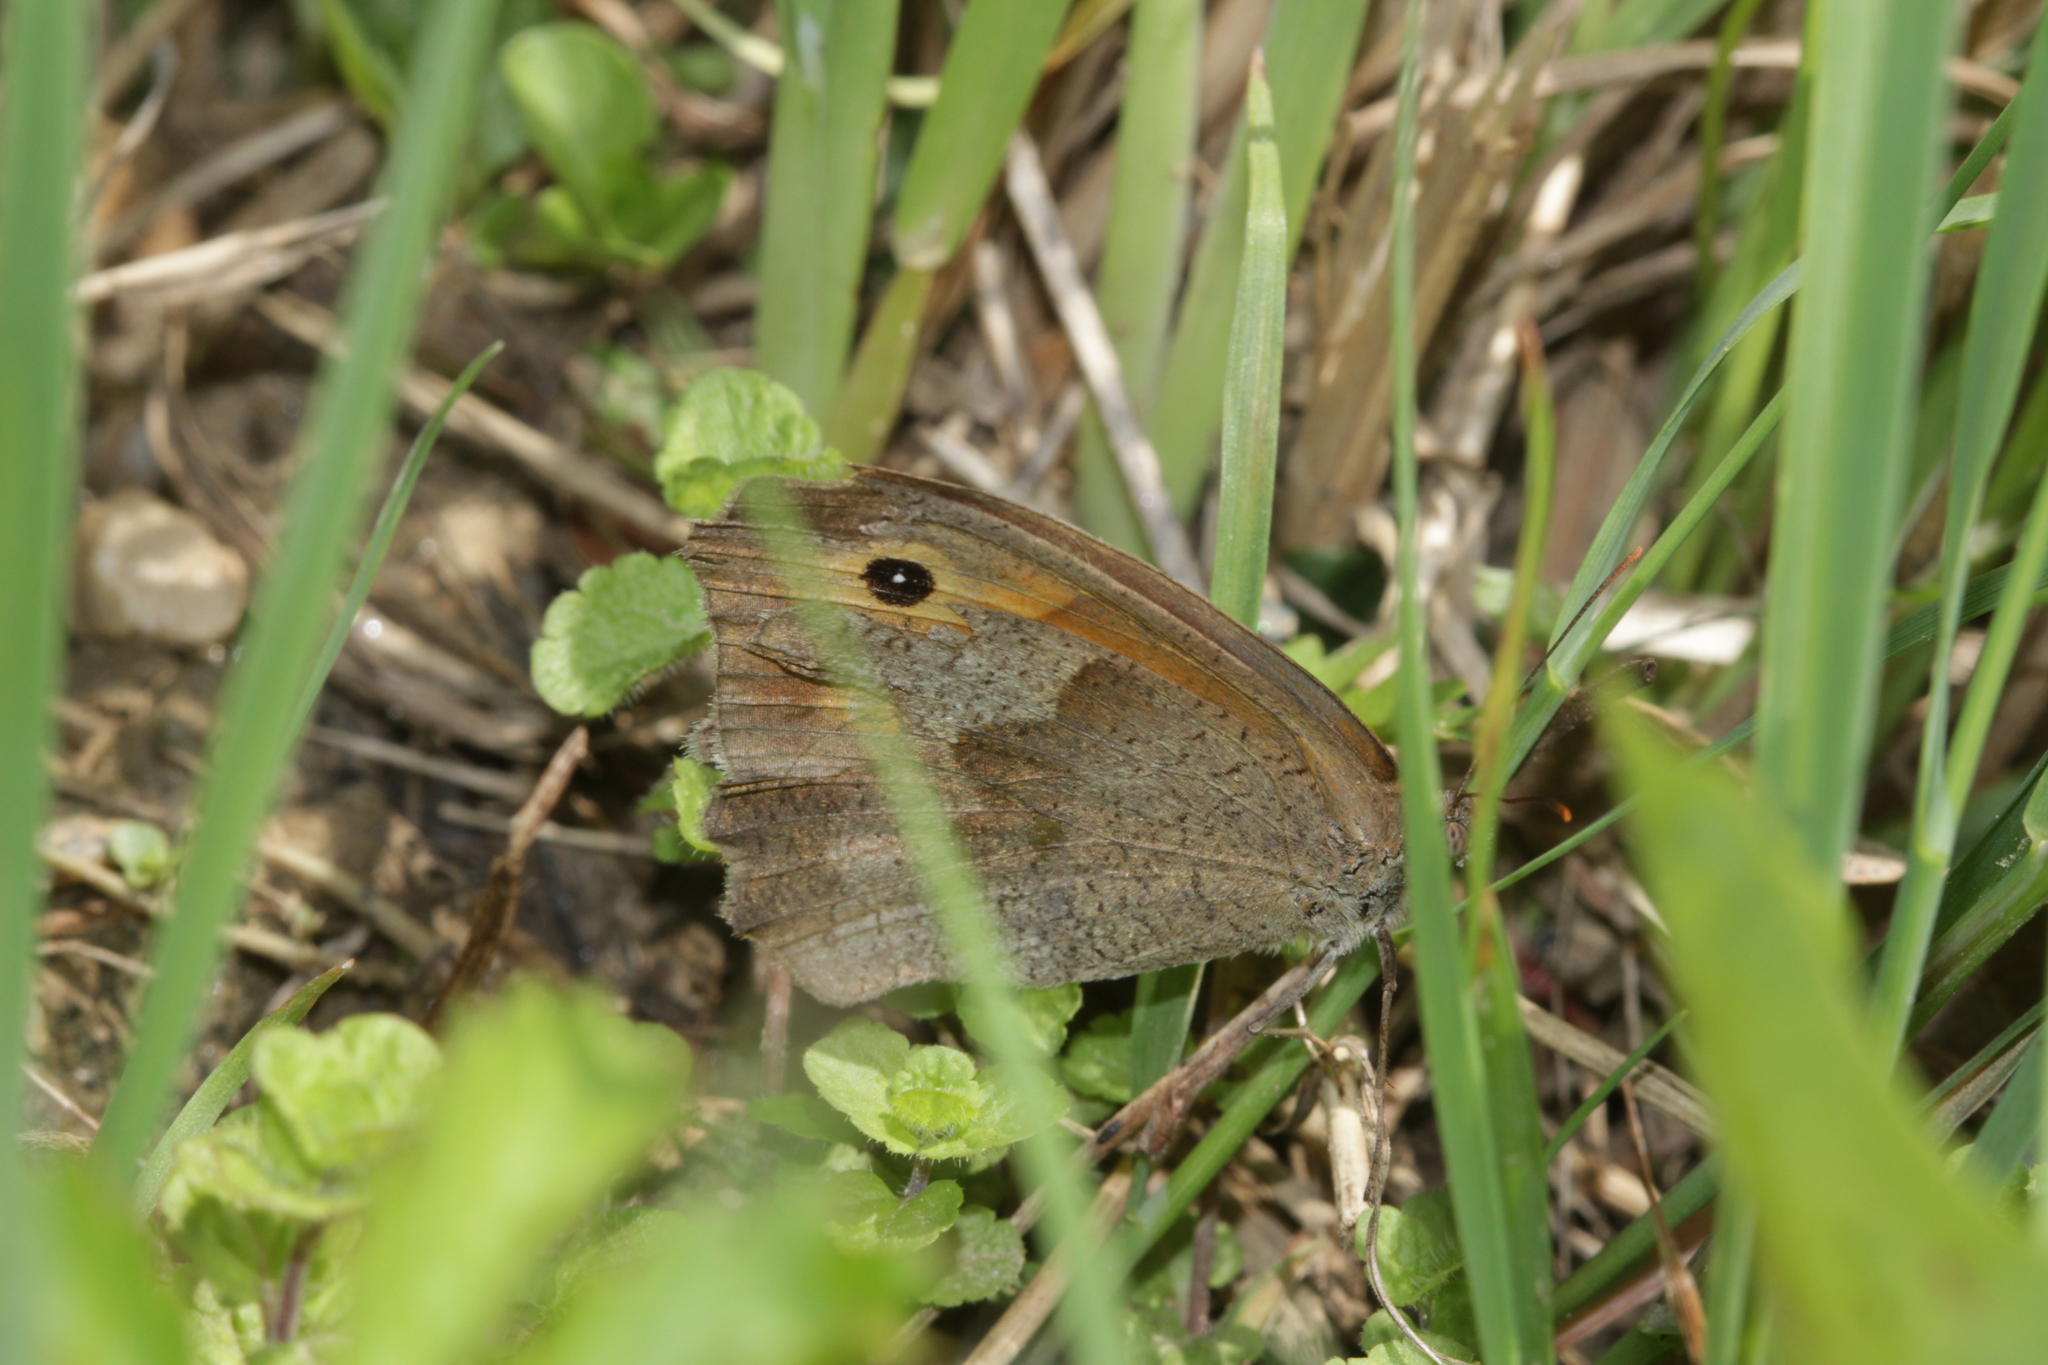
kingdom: Animalia
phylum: Arthropoda
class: Insecta
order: Lepidoptera
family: Nymphalidae
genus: Maniola
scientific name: Maniola jurtina
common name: Meadow brown
